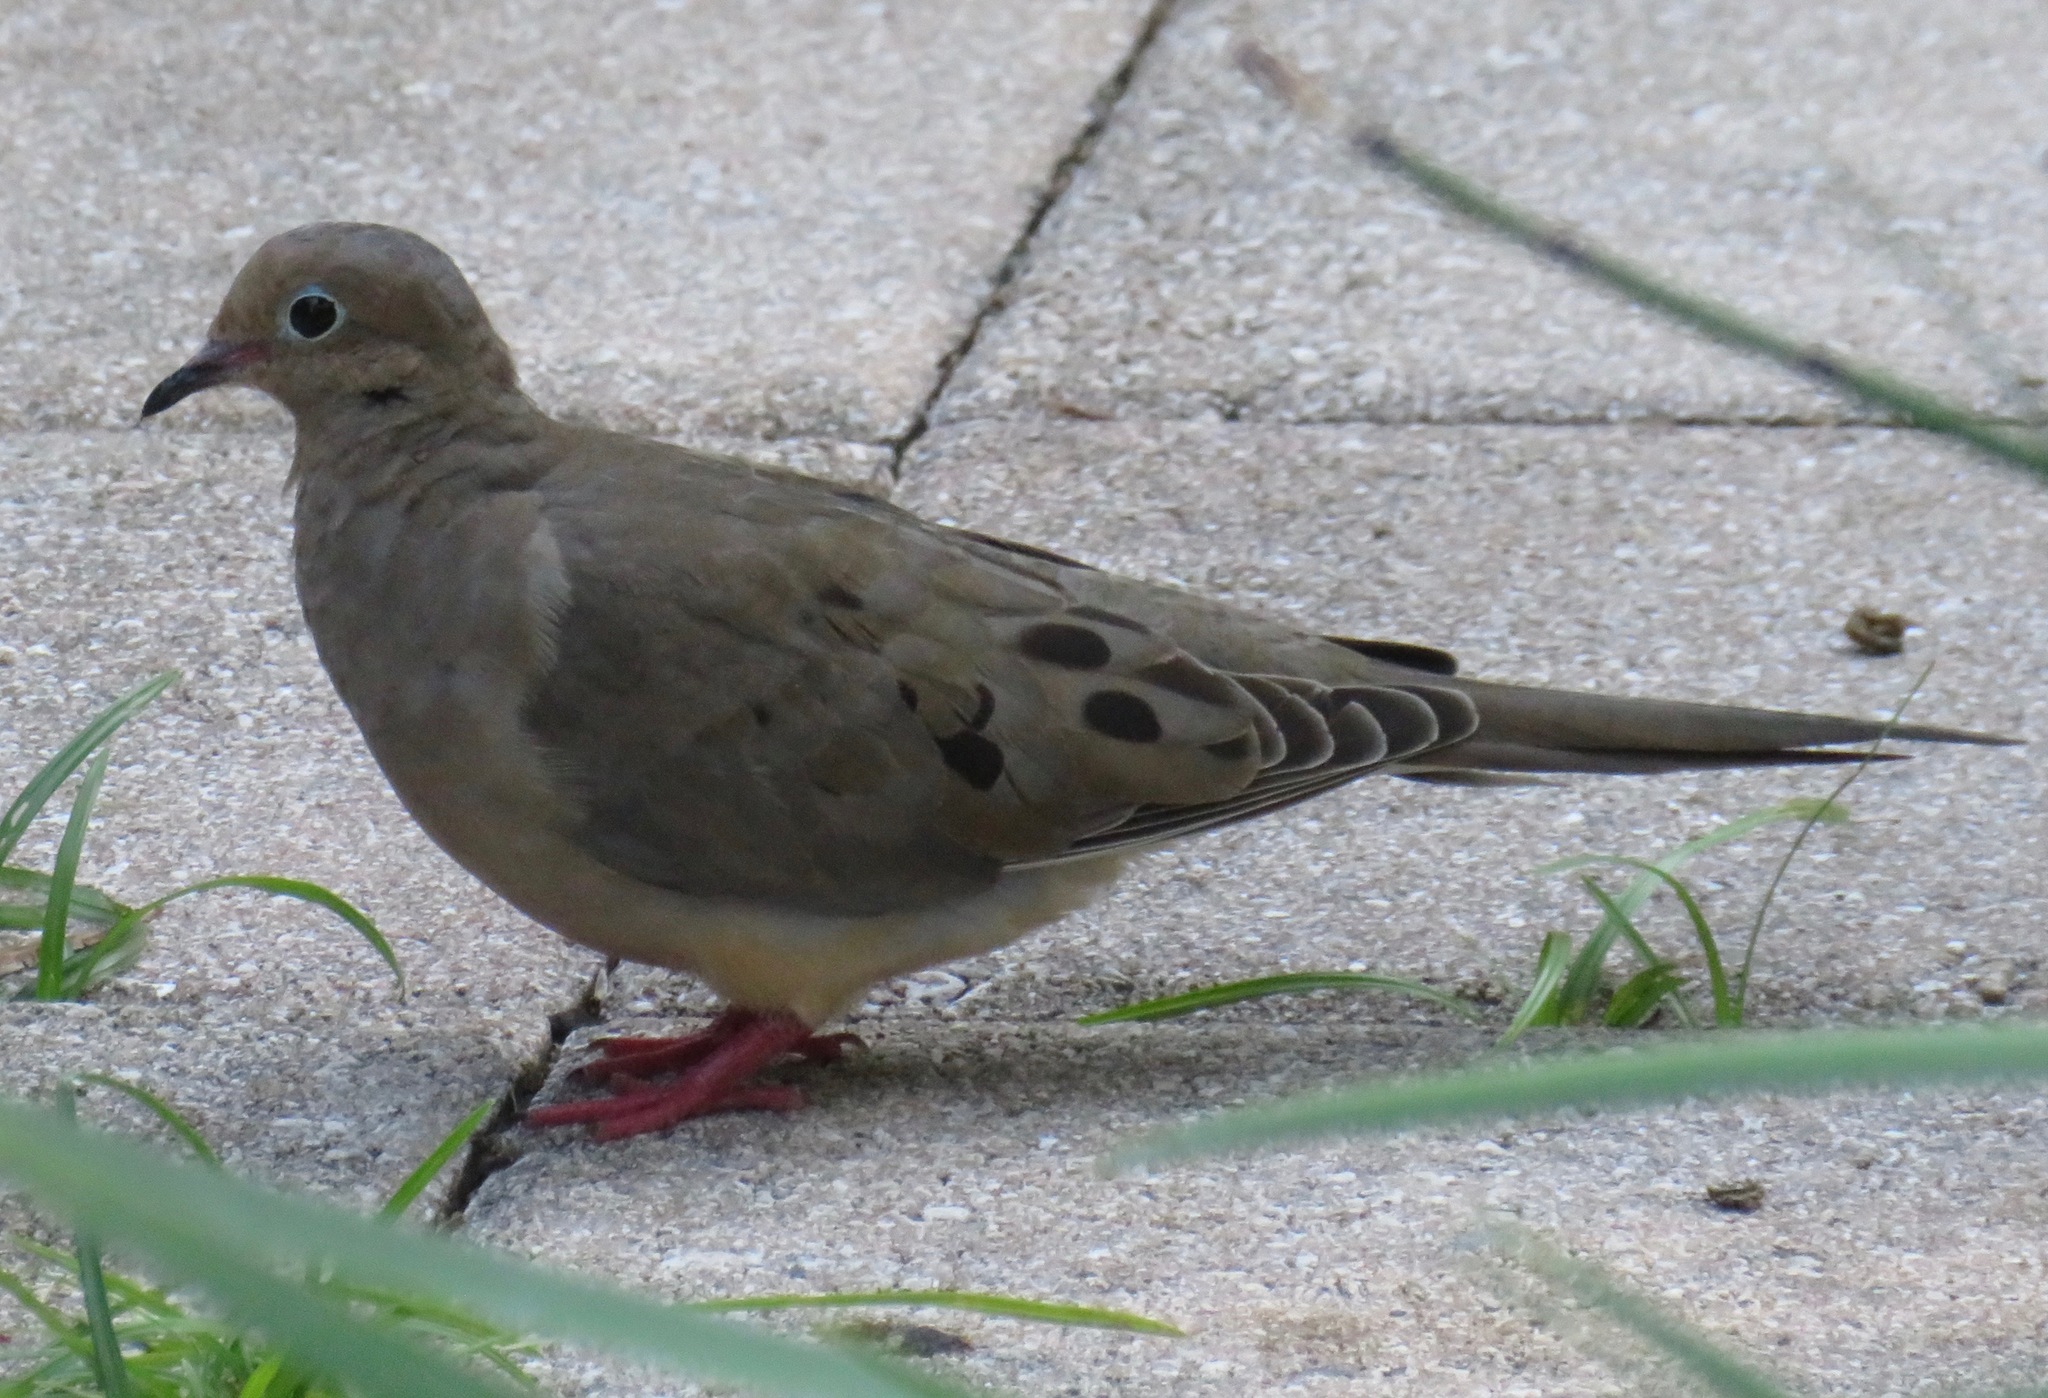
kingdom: Animalia
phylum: Chordata
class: Aves
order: Columbiformes
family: Columbidae
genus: Zenaida
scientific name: Zenaida macroura
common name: Mourning dove
